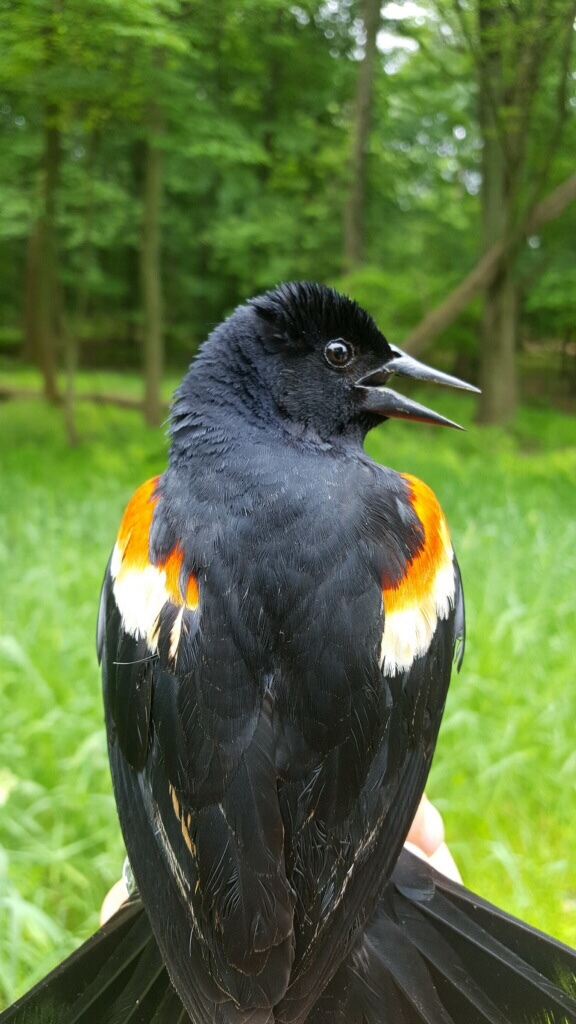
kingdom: Animalia
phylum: Chordata
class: Aves
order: Passeriformes
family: Icteridae
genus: Agelaius
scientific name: Agelaius phoeniceus
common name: Red-winged blackbird
